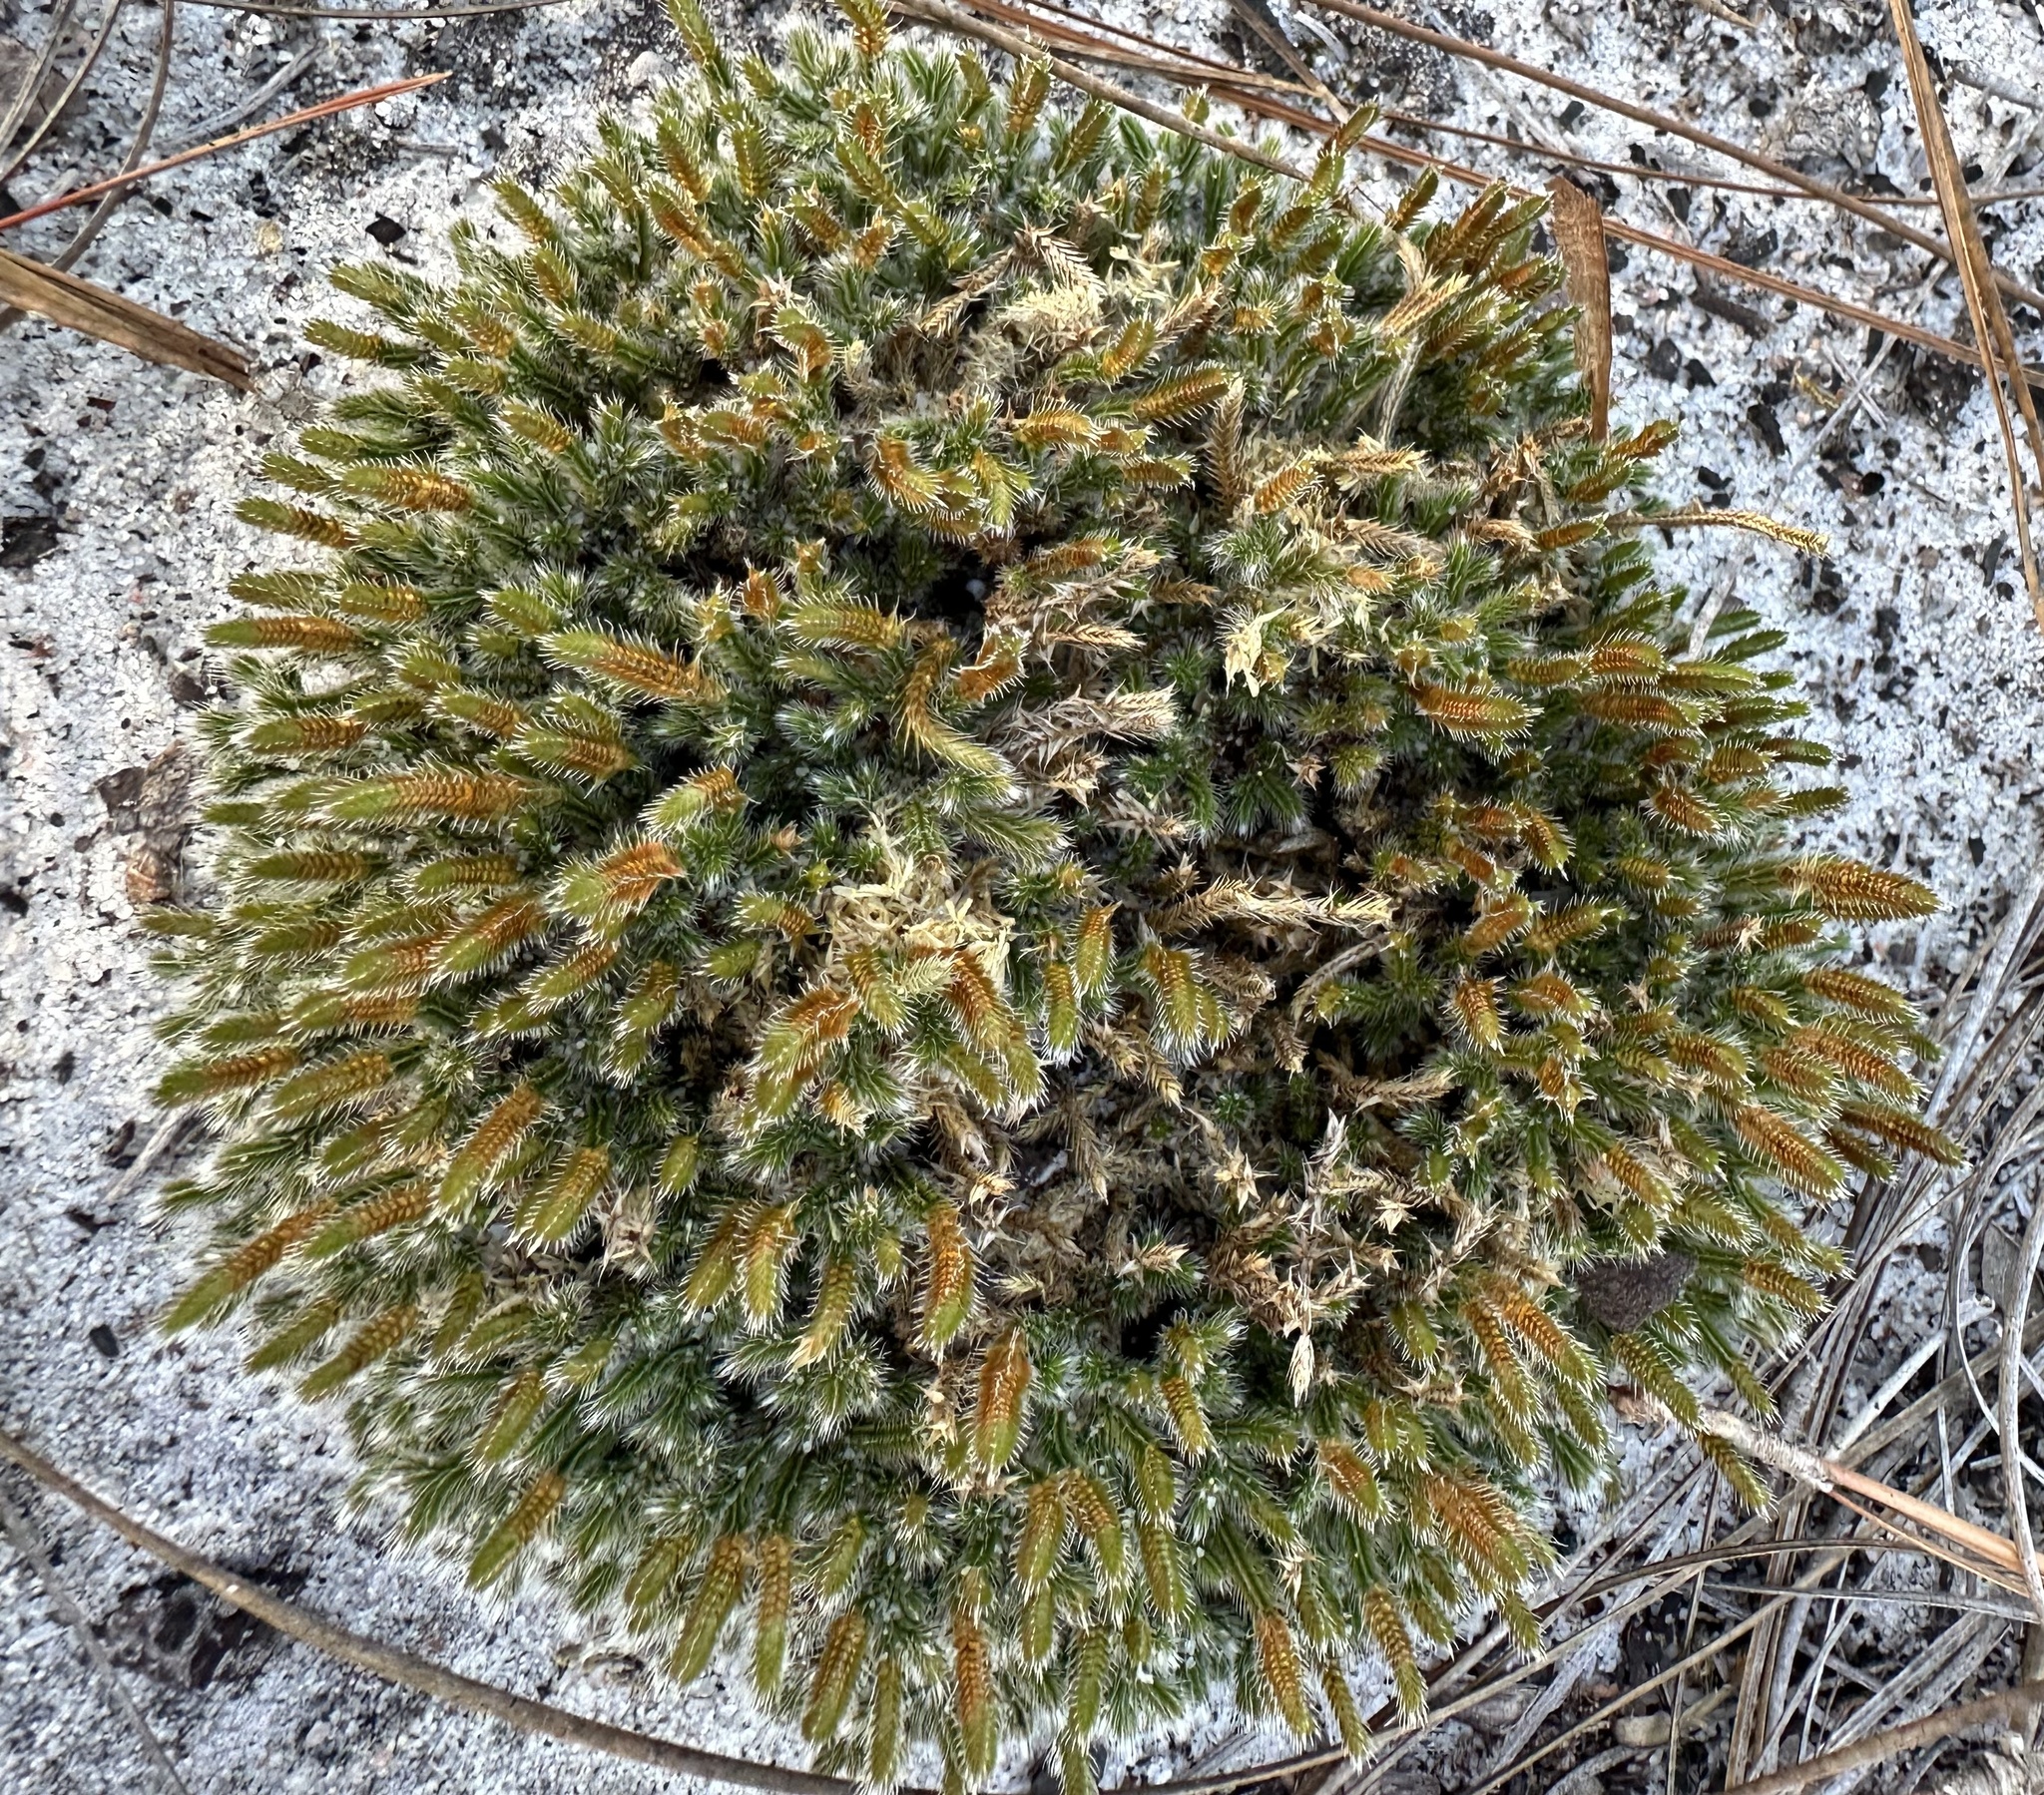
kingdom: Plantae
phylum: Tracheophyta
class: Lycopodiopsida
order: Selaginellales
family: Selaginellaceae
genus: Selaginella
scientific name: Selaginella acanthonota
